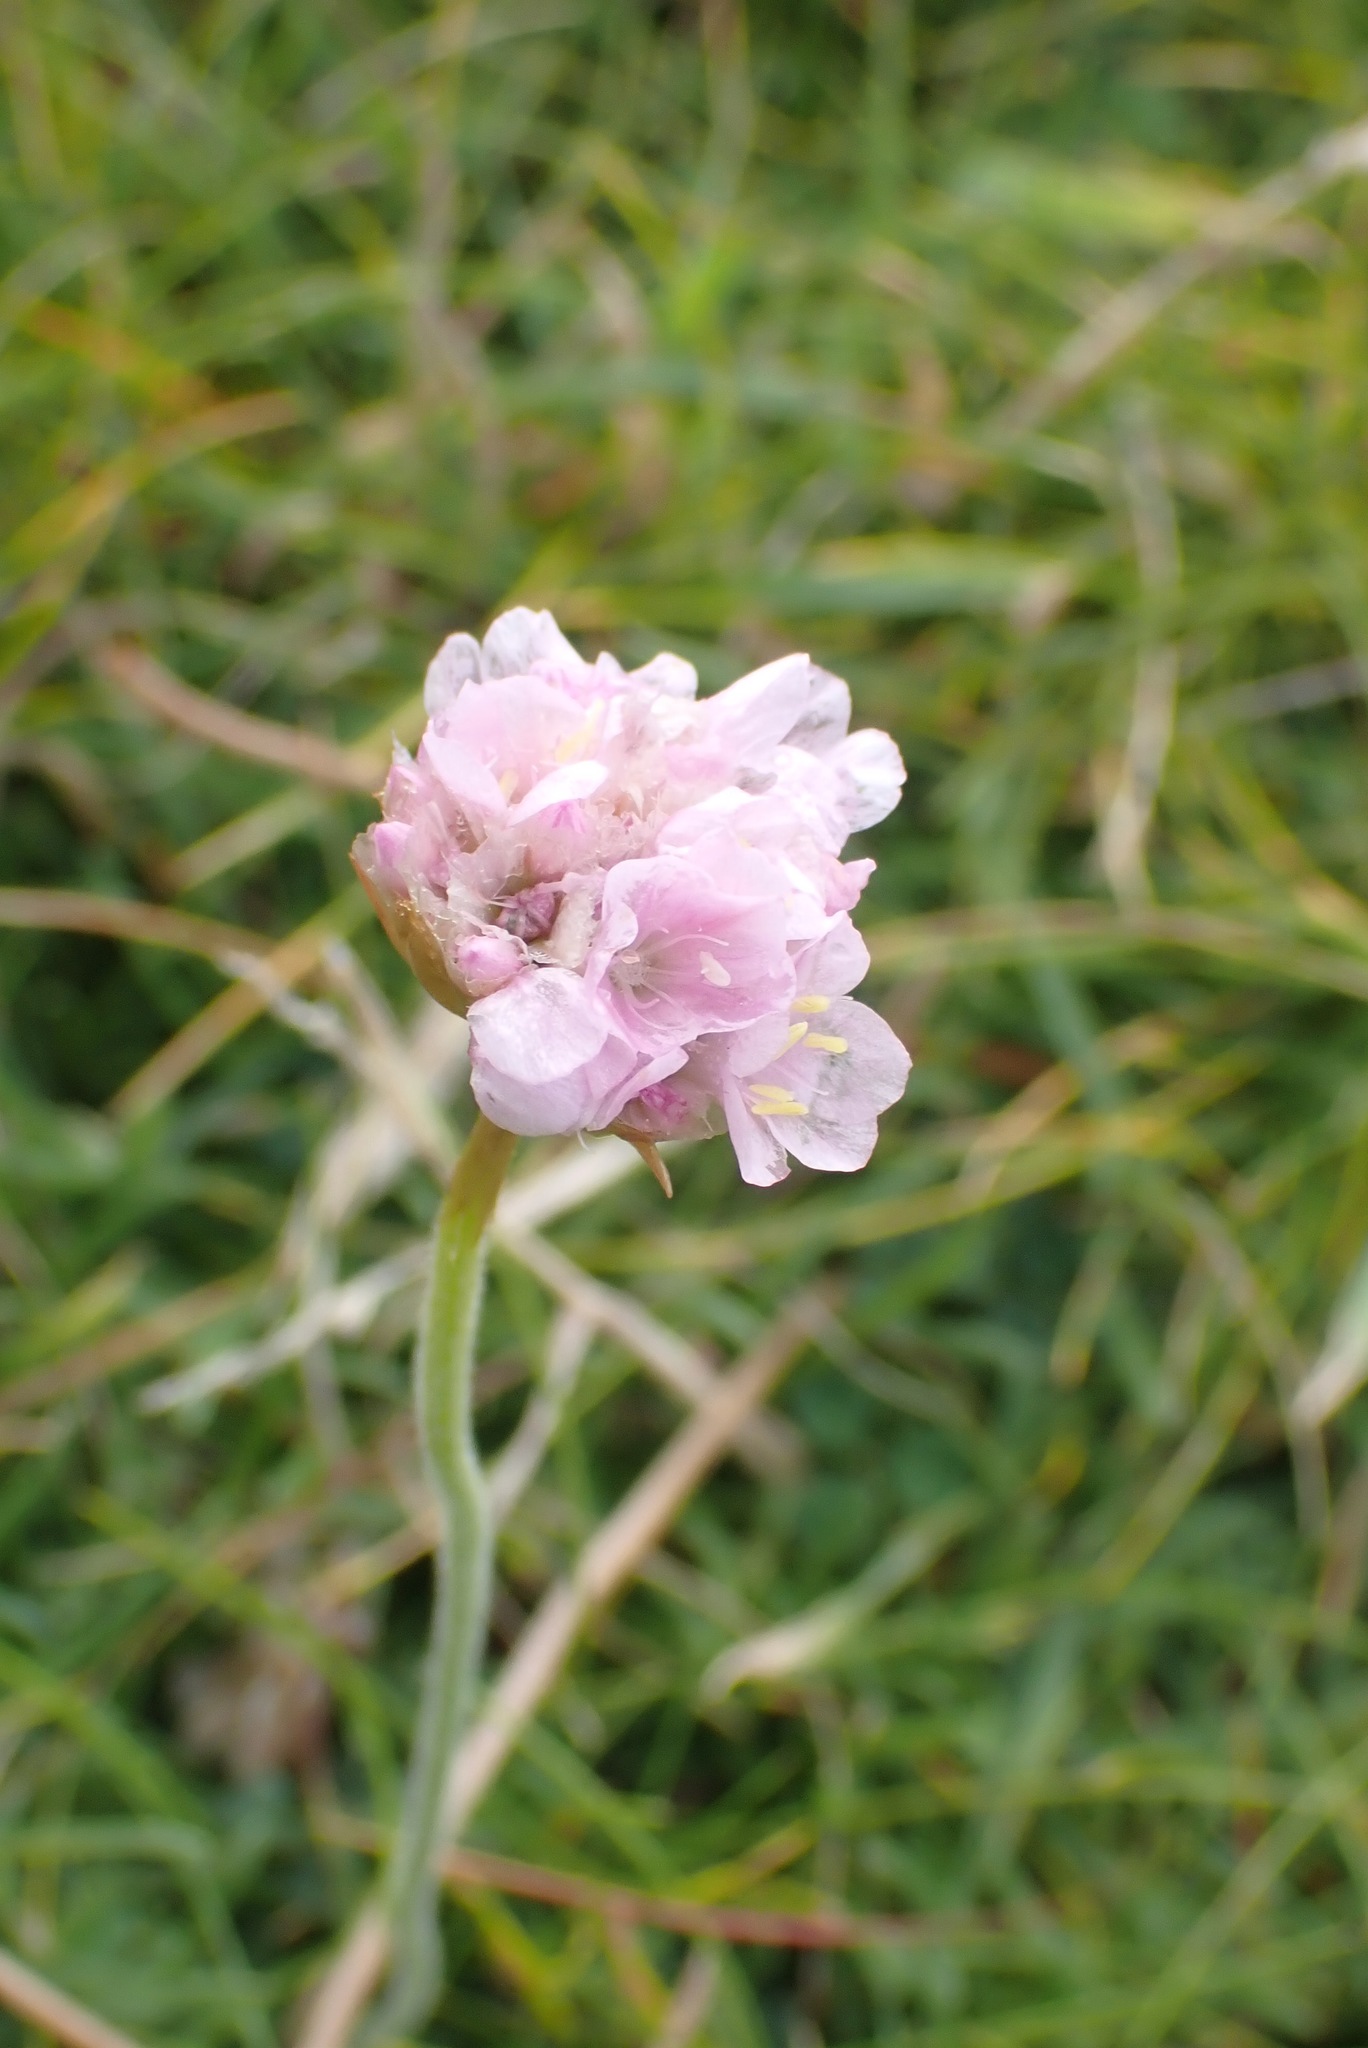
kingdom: Plantae
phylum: Tracheophyta
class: Magnoliopsida
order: Caryophyllales
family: Plumbaginaceae
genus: Armeria
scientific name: Armeria maritima
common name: Thrift
